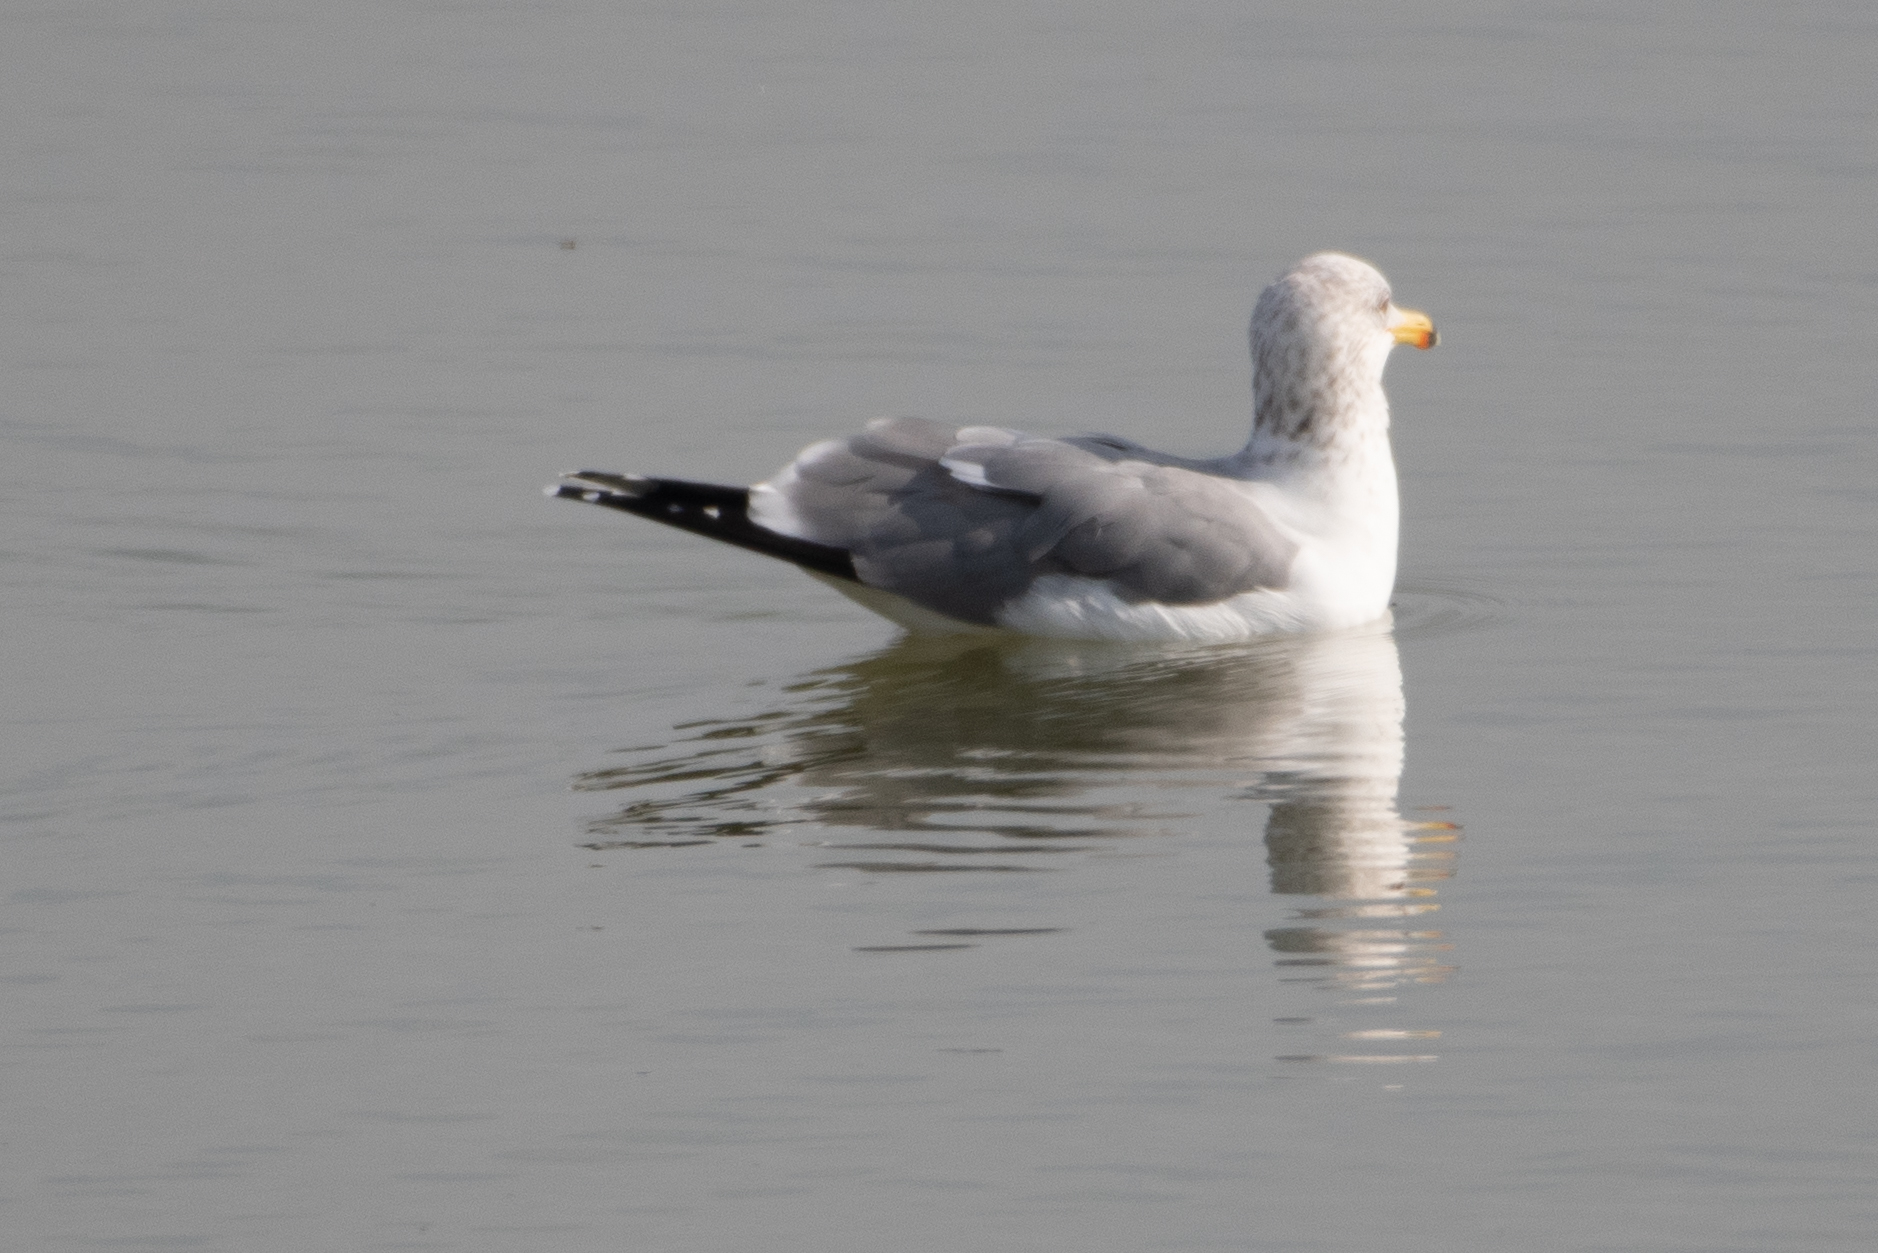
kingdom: Animalia
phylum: Chordata
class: Aves
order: Charadriiformes
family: Laridae
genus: Larus
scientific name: Larus californicus
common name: California gull
